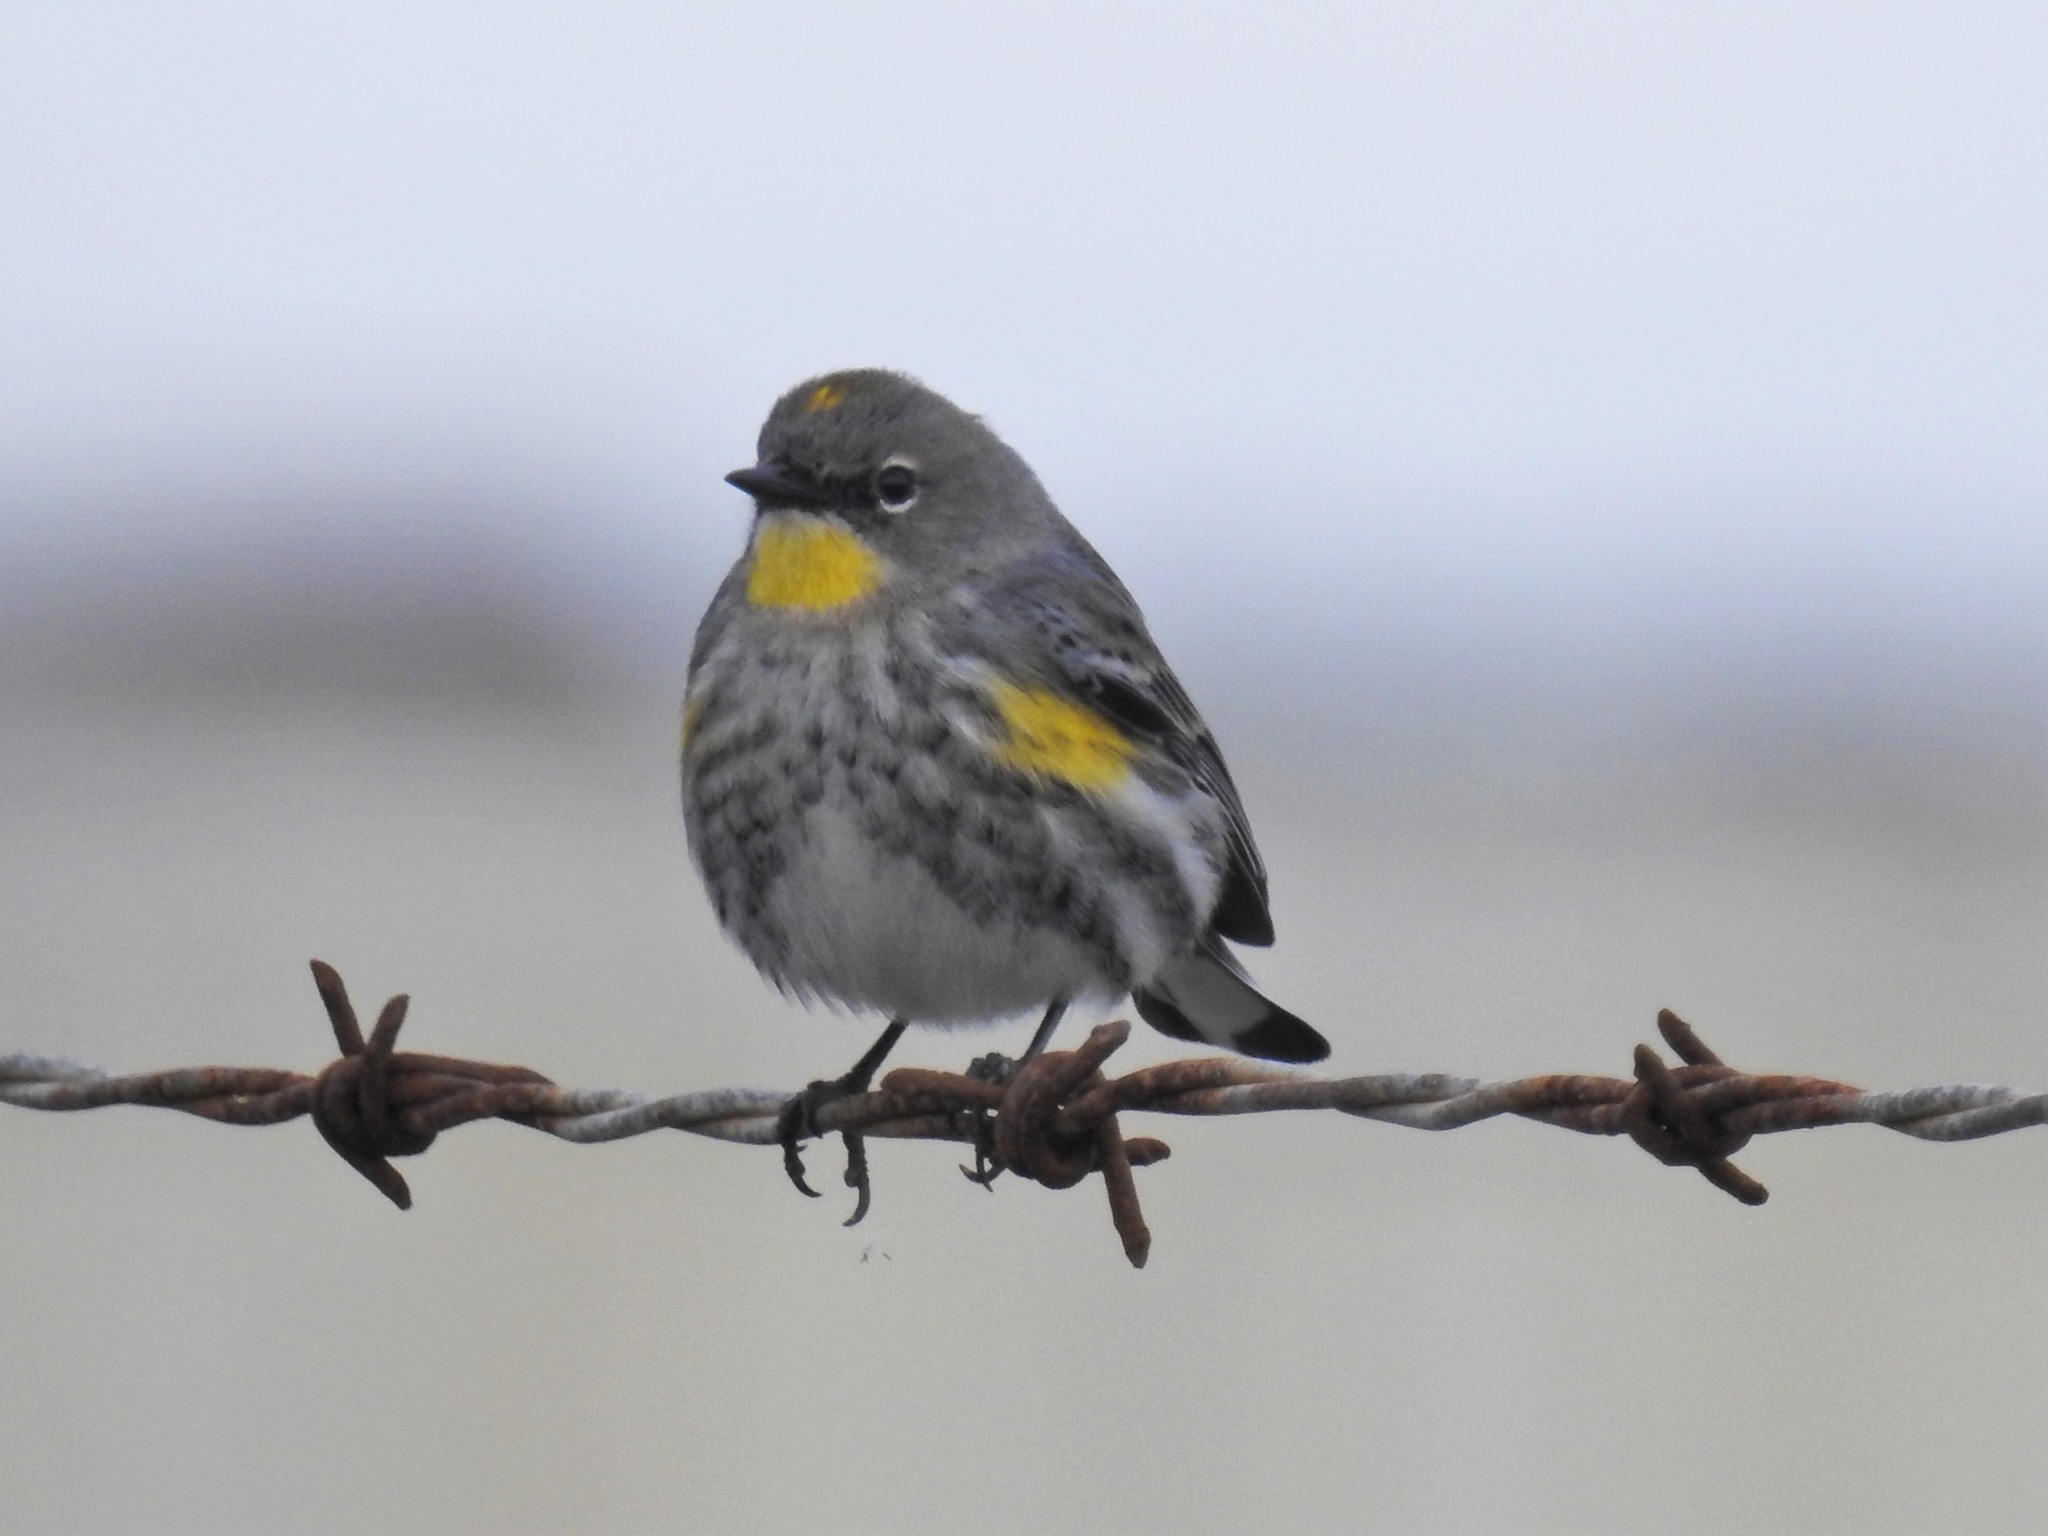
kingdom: Animalia
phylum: Chordata
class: Aves
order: Passeriformes
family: Parulidae
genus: Setophaga
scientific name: Setophaga coronata
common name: Myrtle warbler
